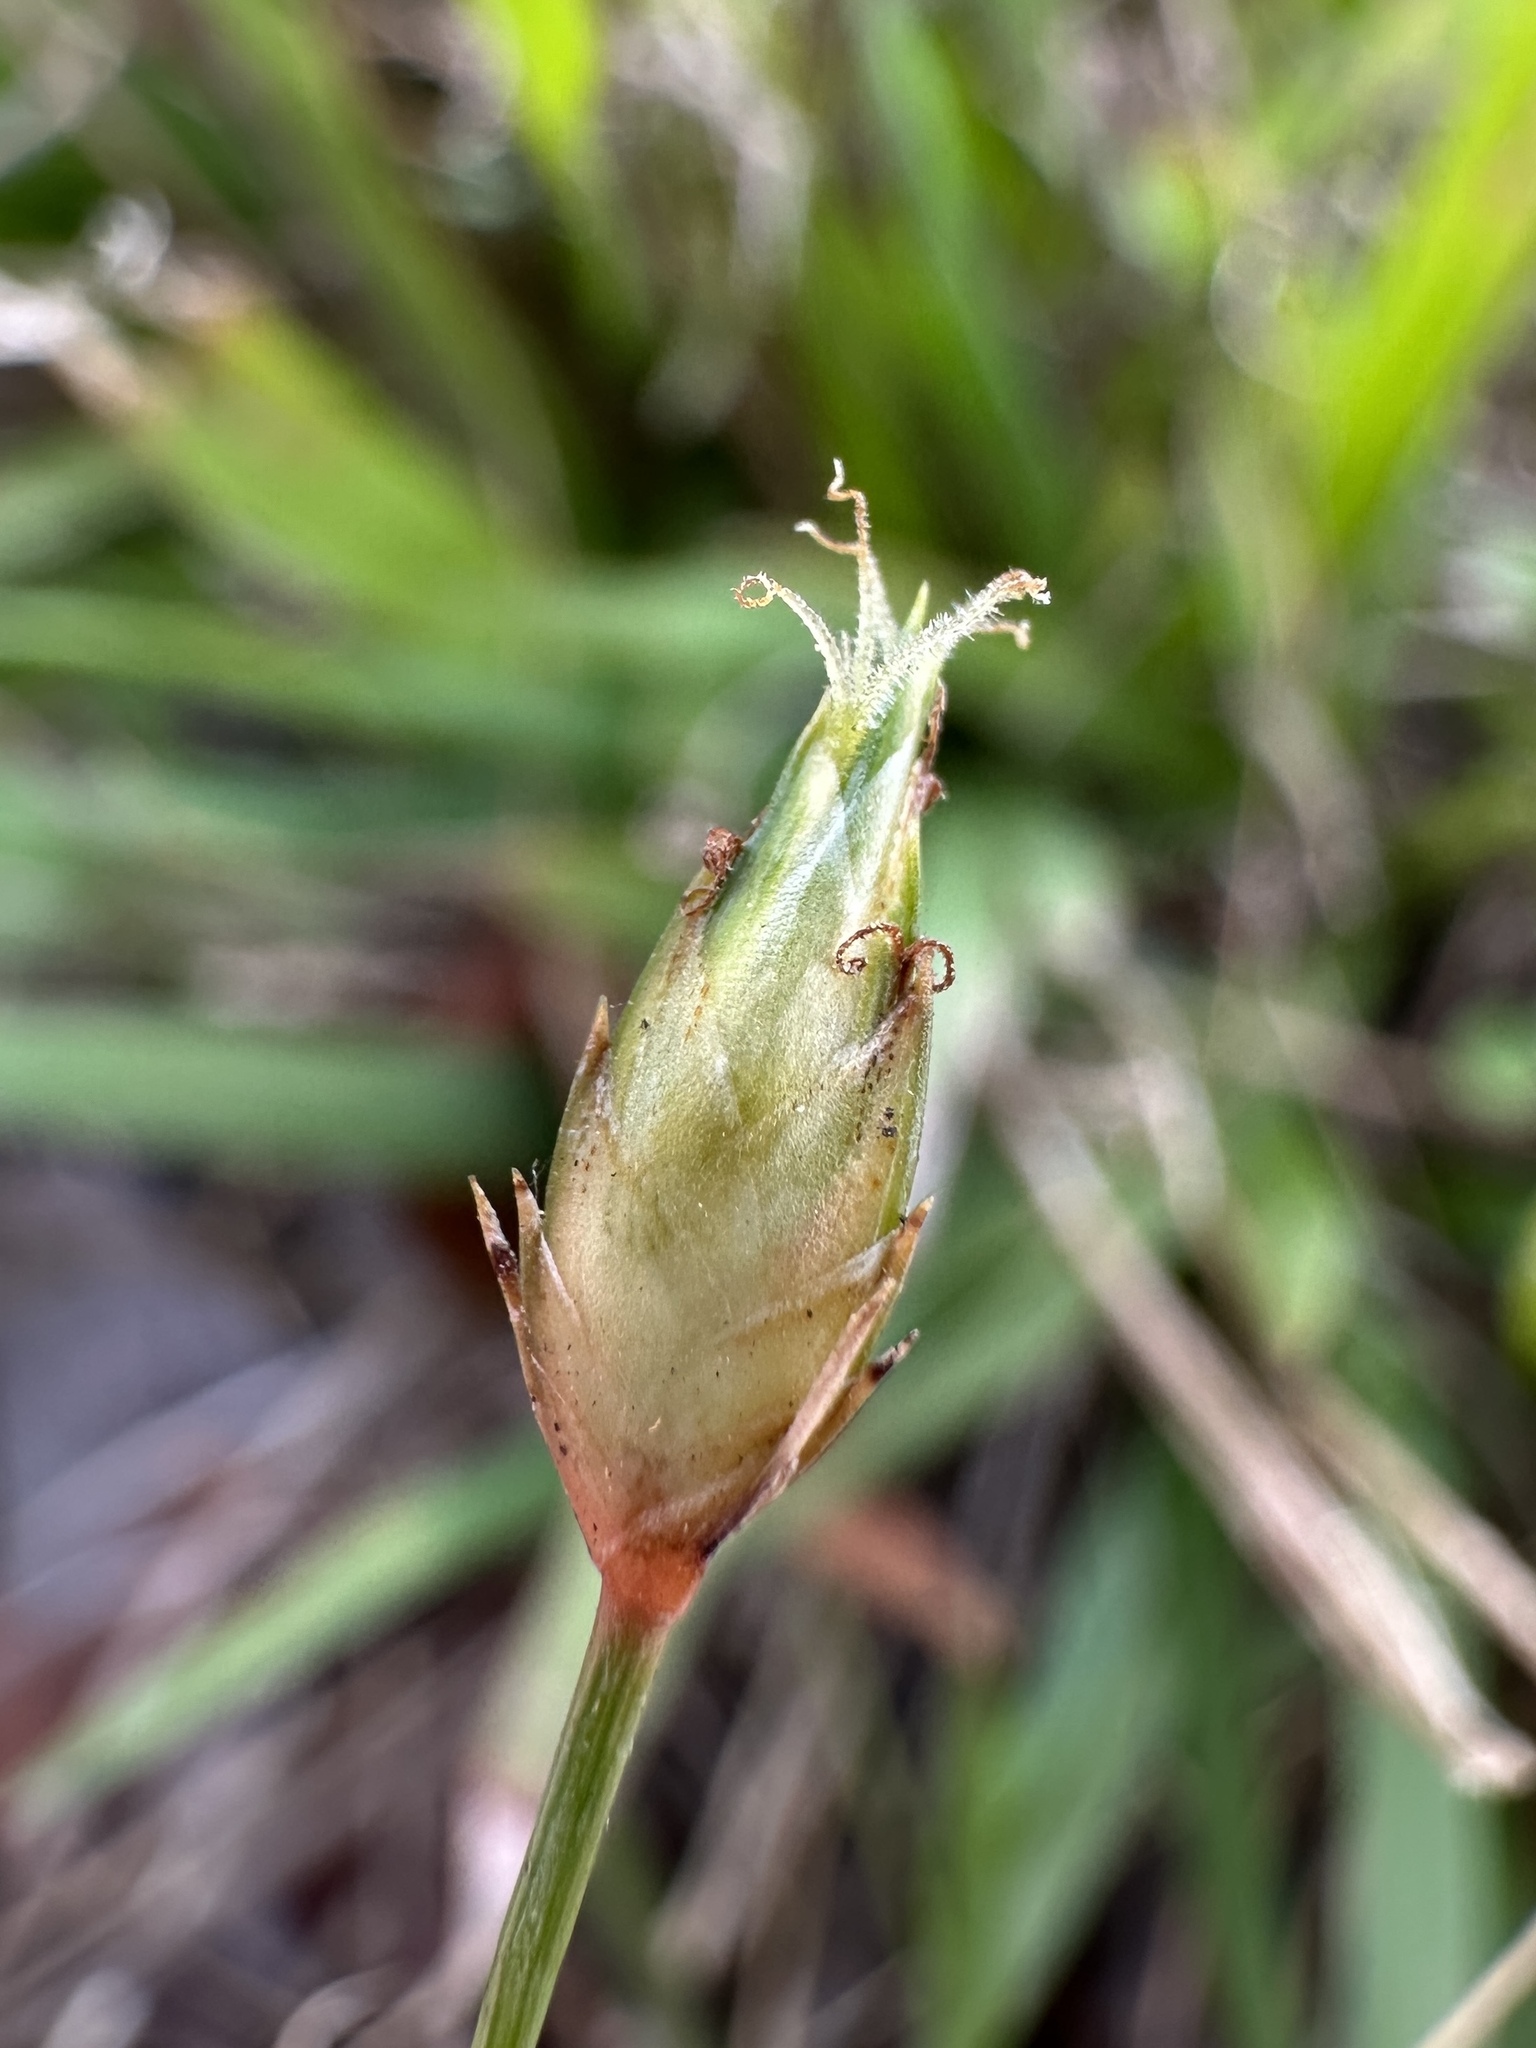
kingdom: Plantae
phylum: Tracheophyta
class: Liliopsida
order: Poales
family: Cyperaceae
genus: Abildgaardia
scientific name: Abildgaardia ovata
